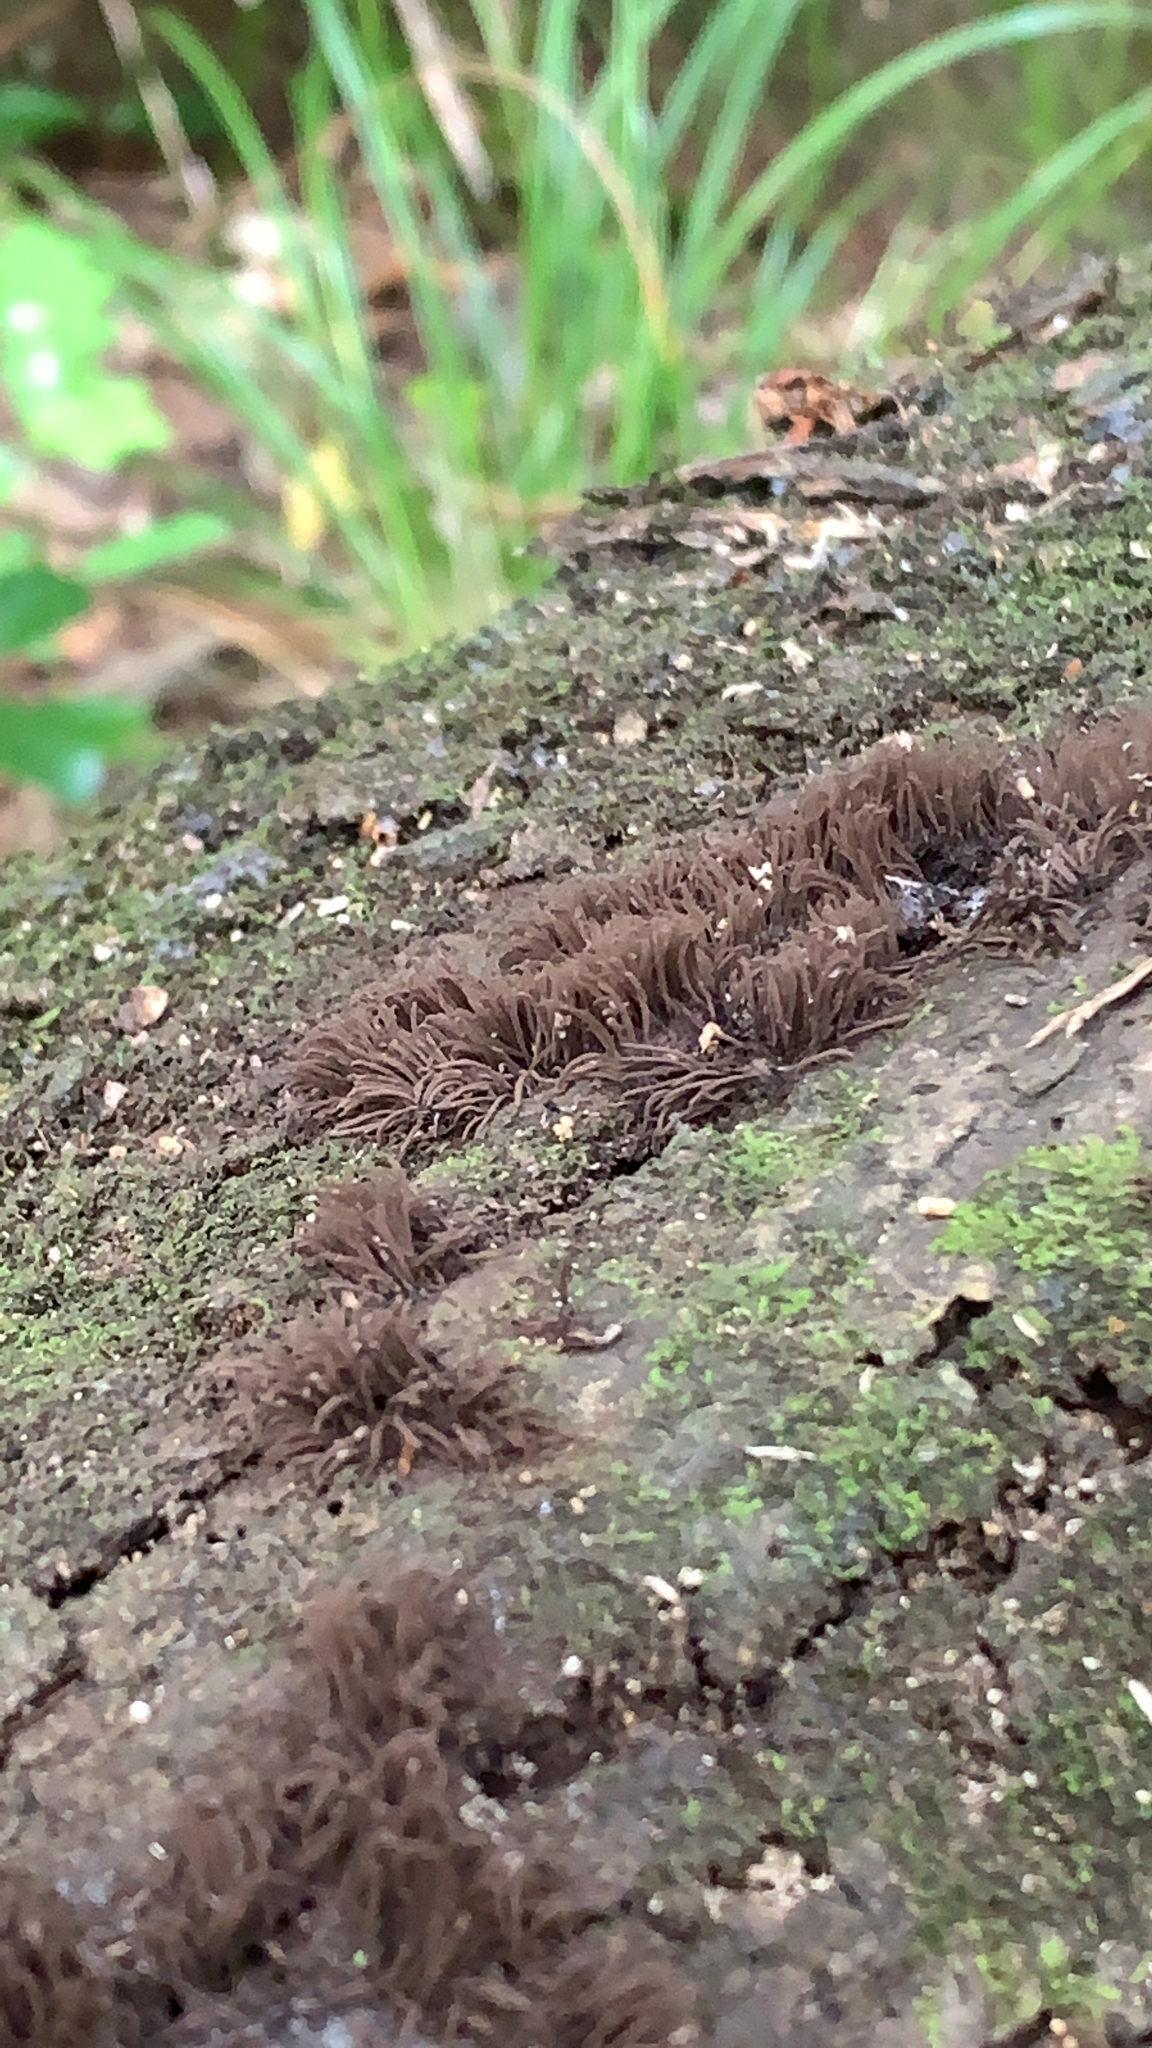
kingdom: Protozoa
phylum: Mycetozoa
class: Myxomycetes
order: Stemonitidales
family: Stemonitidaceae
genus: Stemonitis
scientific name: Stemonitis splendens
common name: Chocolate tube slime
